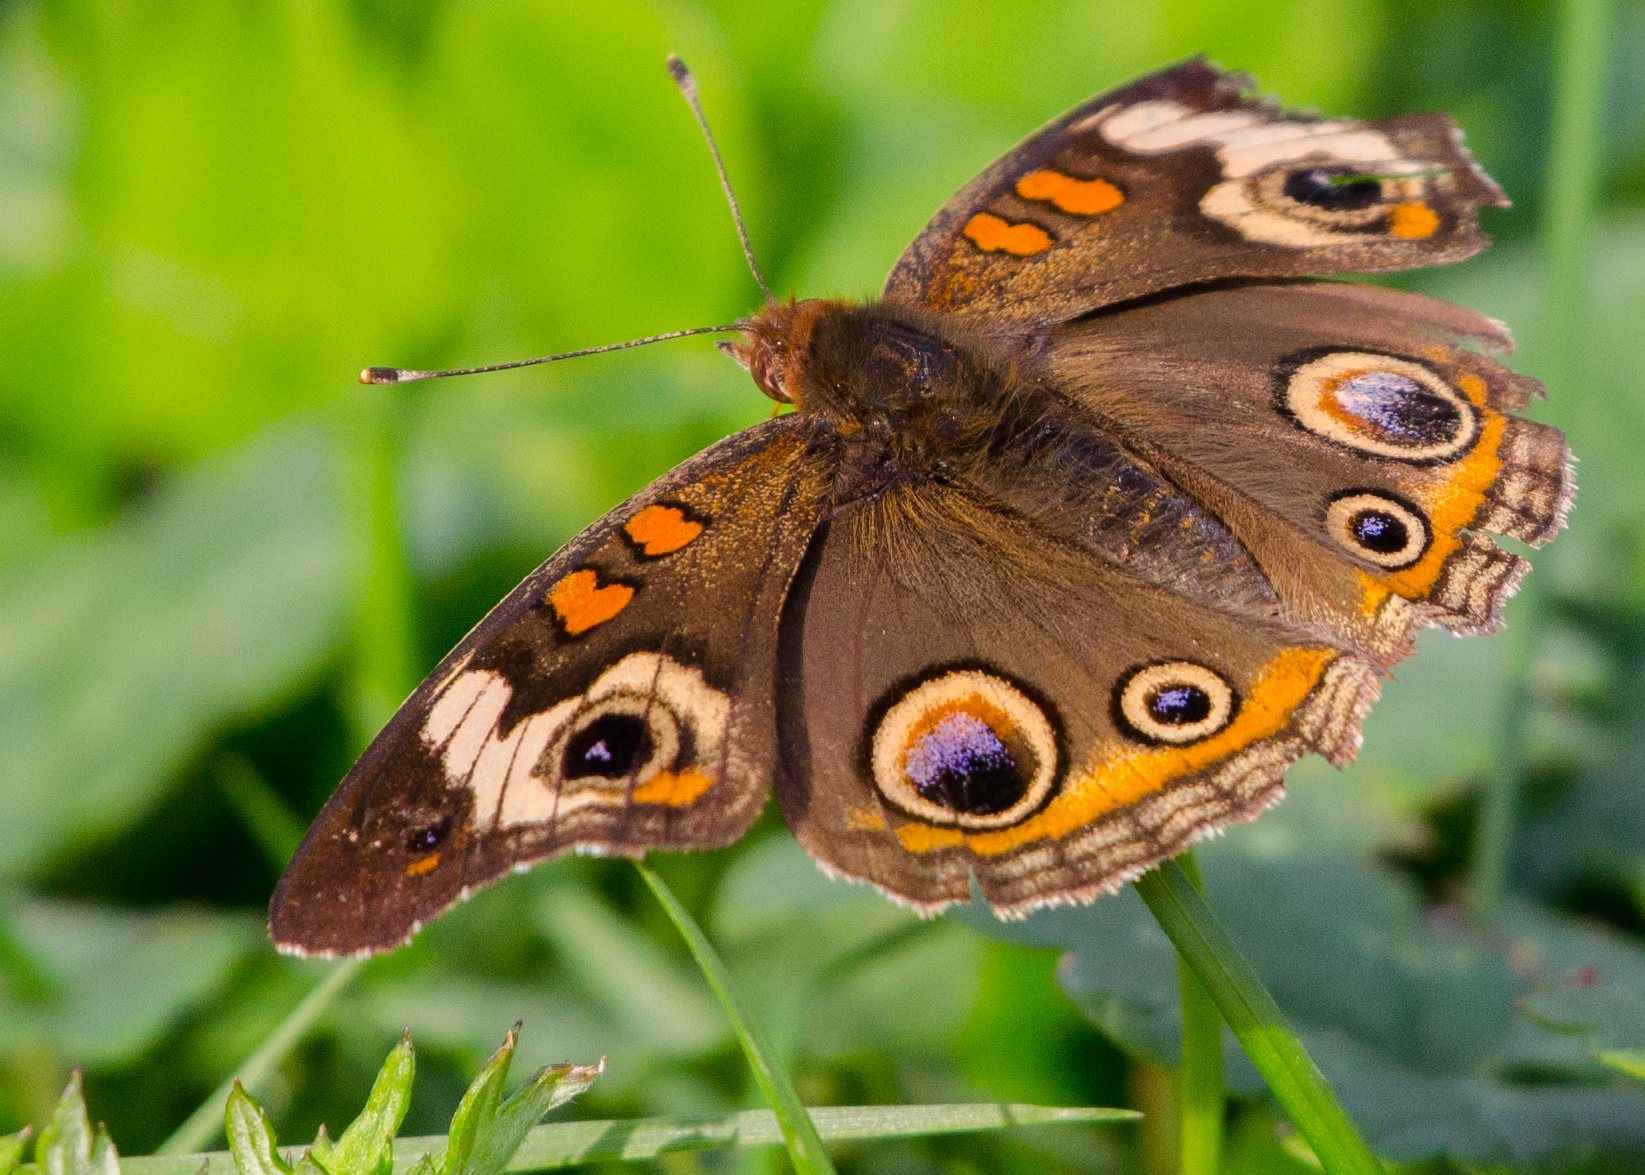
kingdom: Animalia
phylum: Arthropoda
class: Insecta
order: Lepidoptera
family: Nymphalidae
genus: Junonia
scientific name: Junonia coenia
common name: Common buckeye
